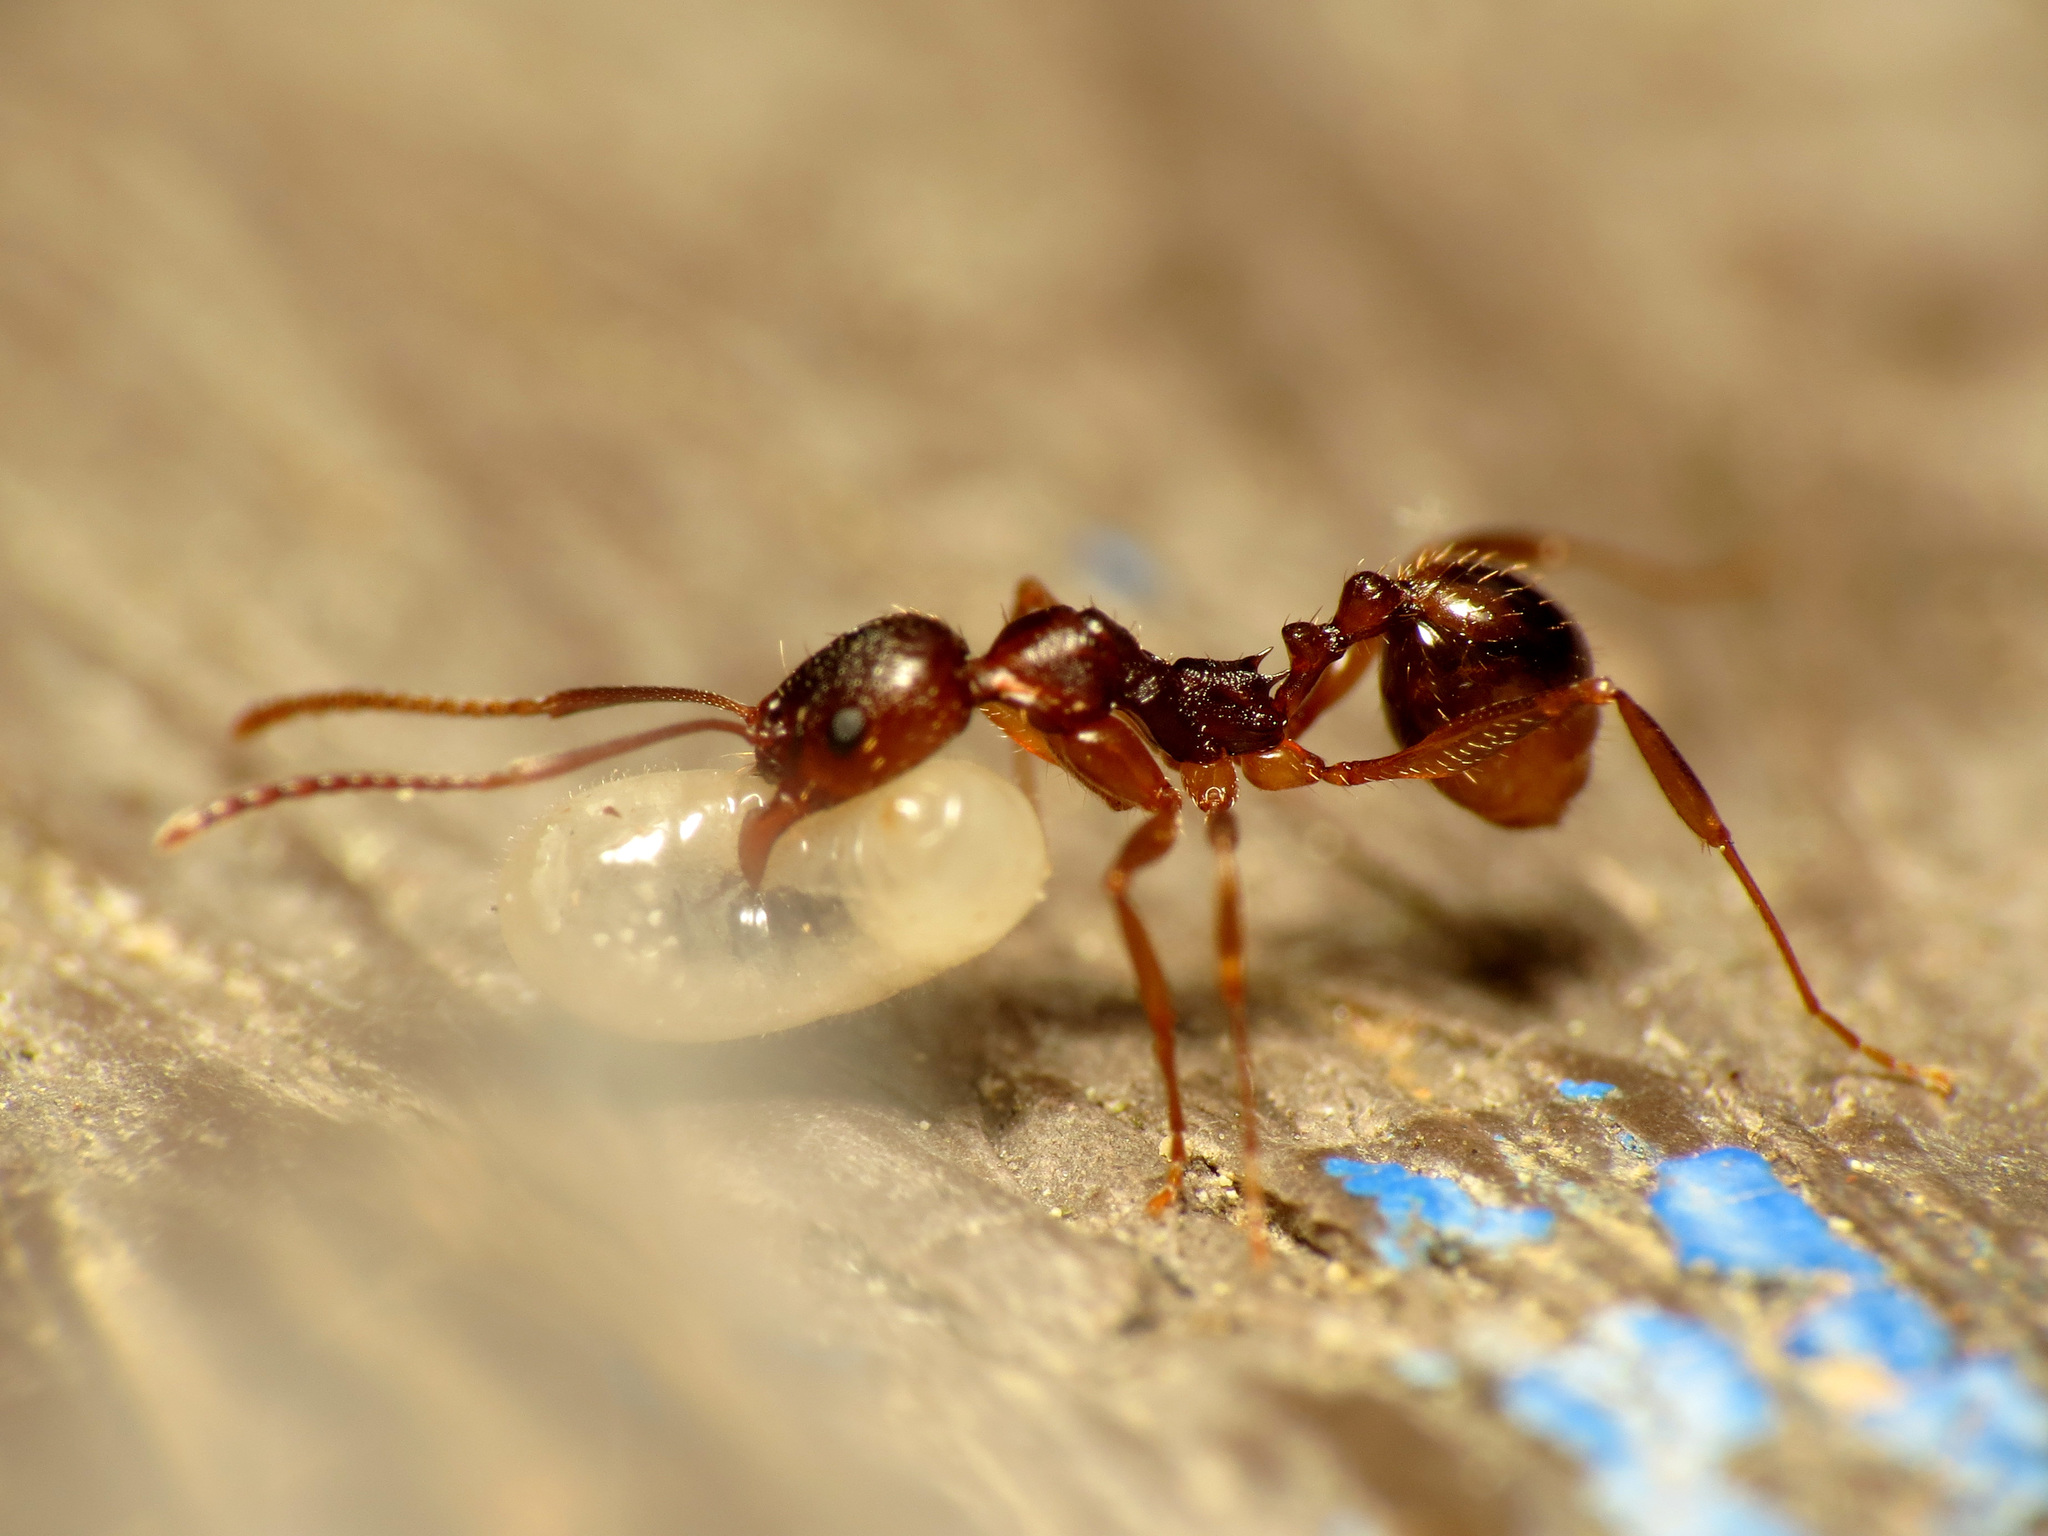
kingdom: Animalia
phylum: Arthropoda
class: Insecta
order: Hymenoptera
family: Formicidae
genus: Aphaenogaster
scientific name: Aphaenogaster rudis
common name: Winnow ant
